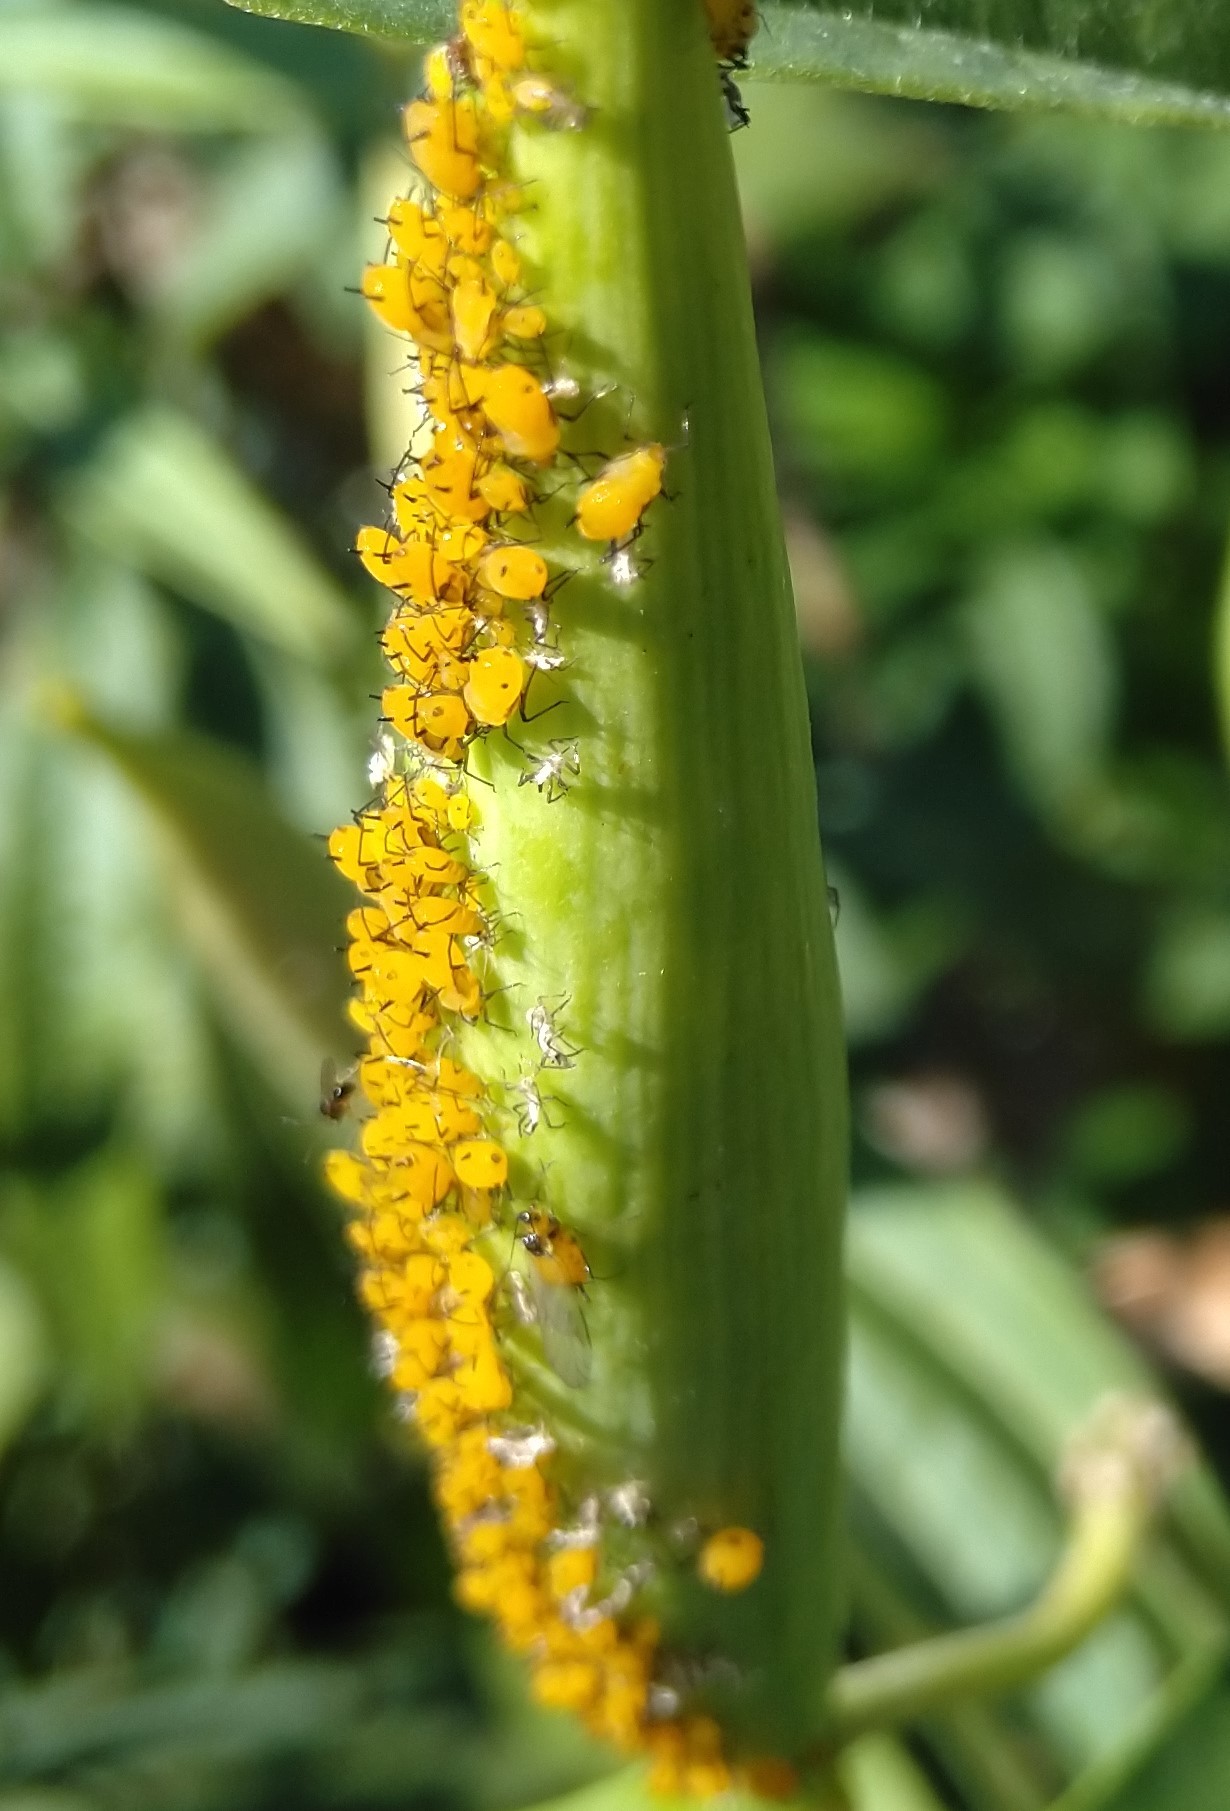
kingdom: Animalia
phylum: Arthropoda
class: Insecta
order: Hemiptera
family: Aphididae
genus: Aphis
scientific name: Aphis nerii
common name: Oleander aphid
